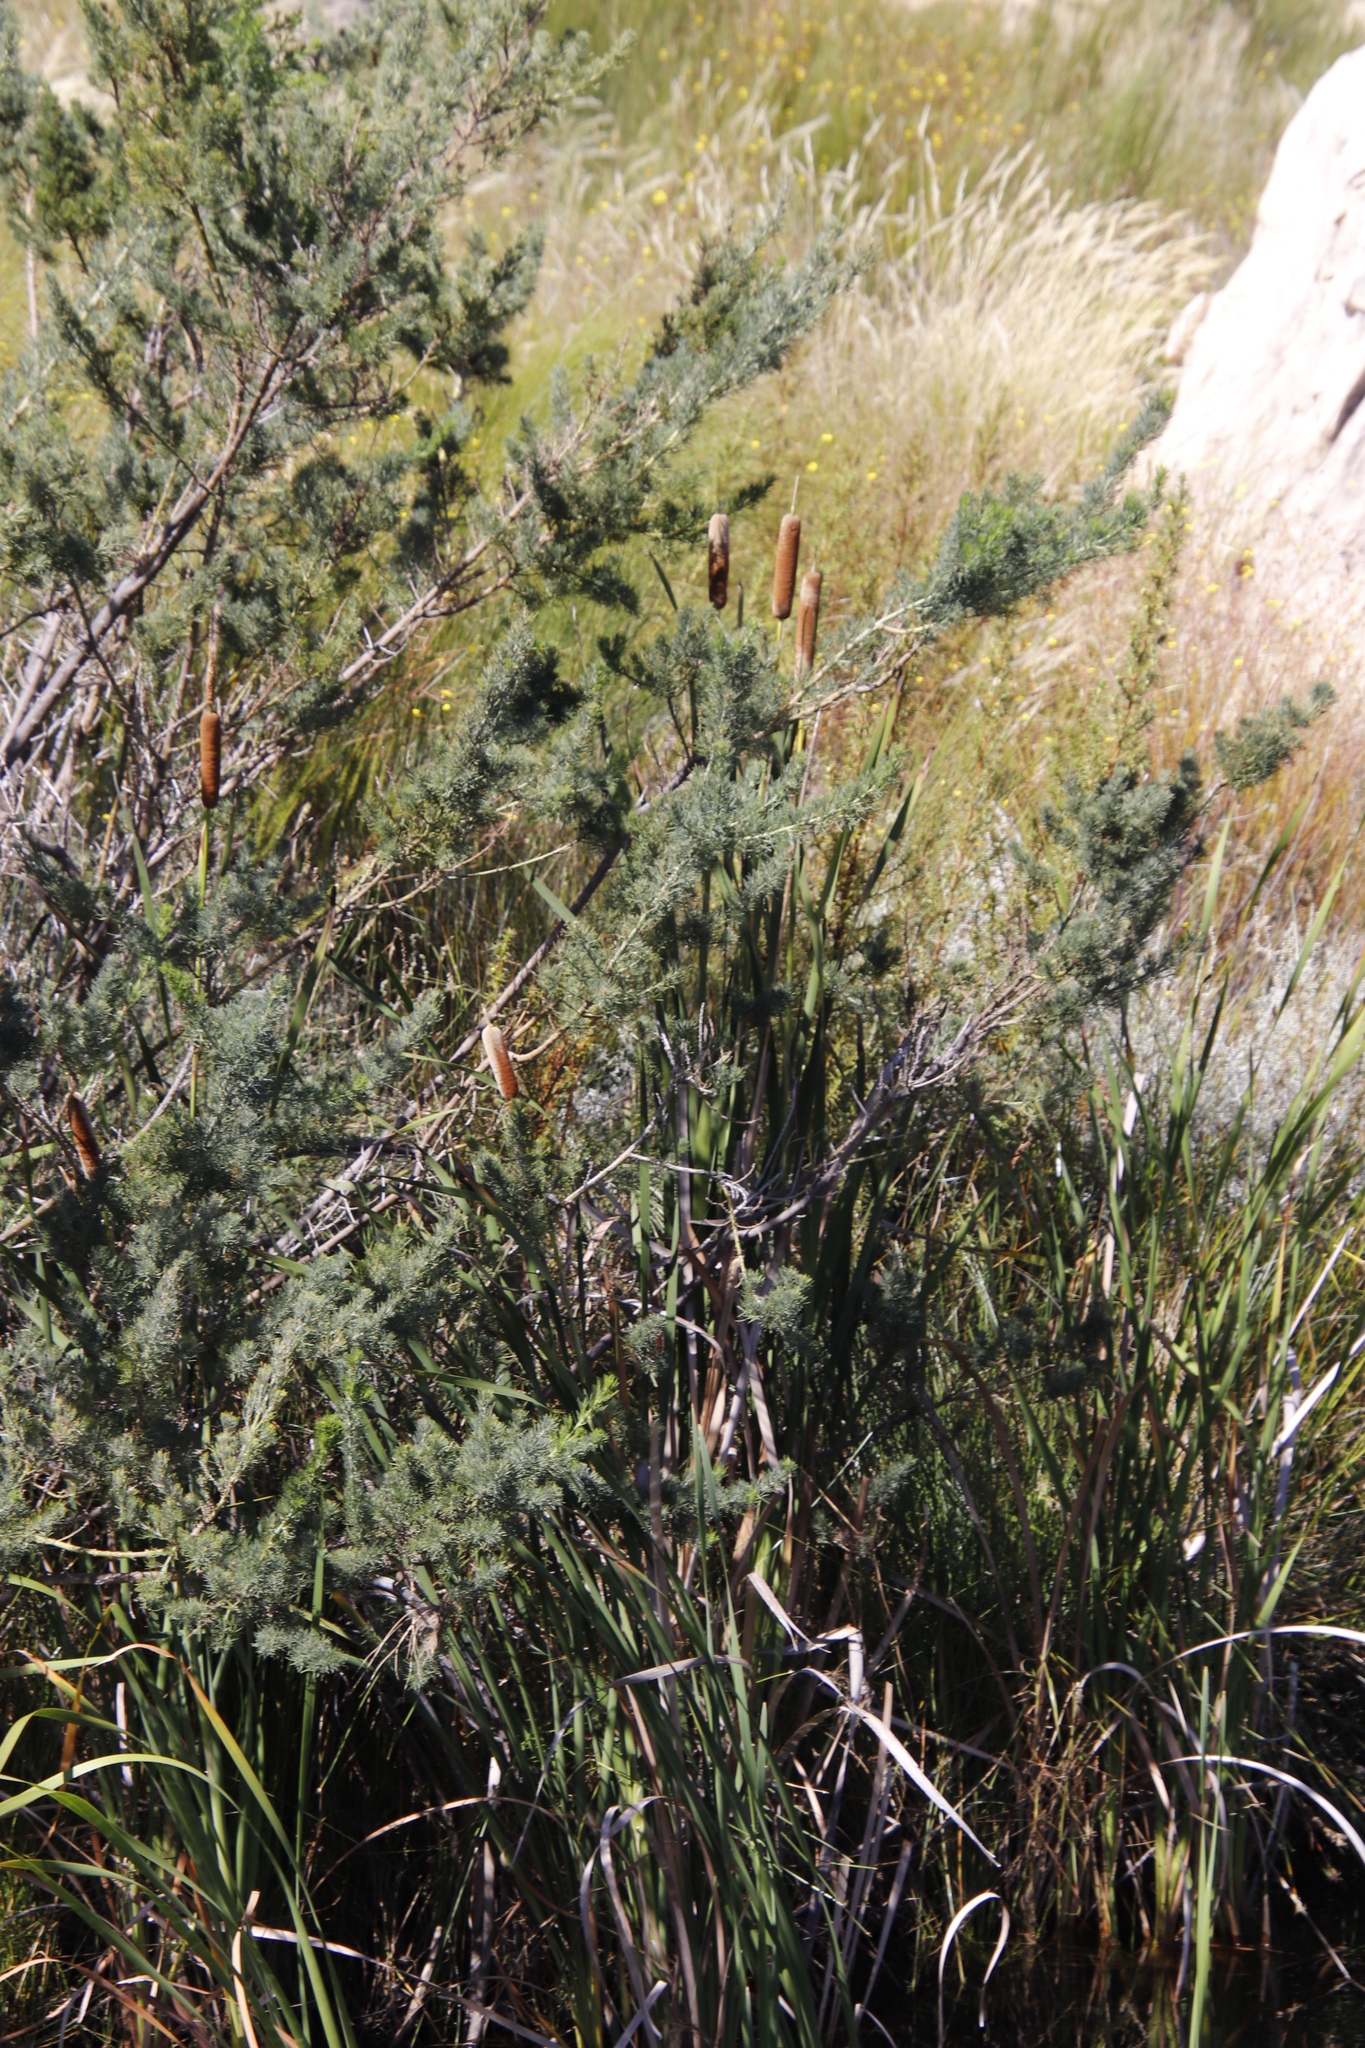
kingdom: Plantae
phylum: Tracheophyta
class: Liliopsida
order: Poales
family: Typhaceae
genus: Typha
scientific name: Typha capensis
